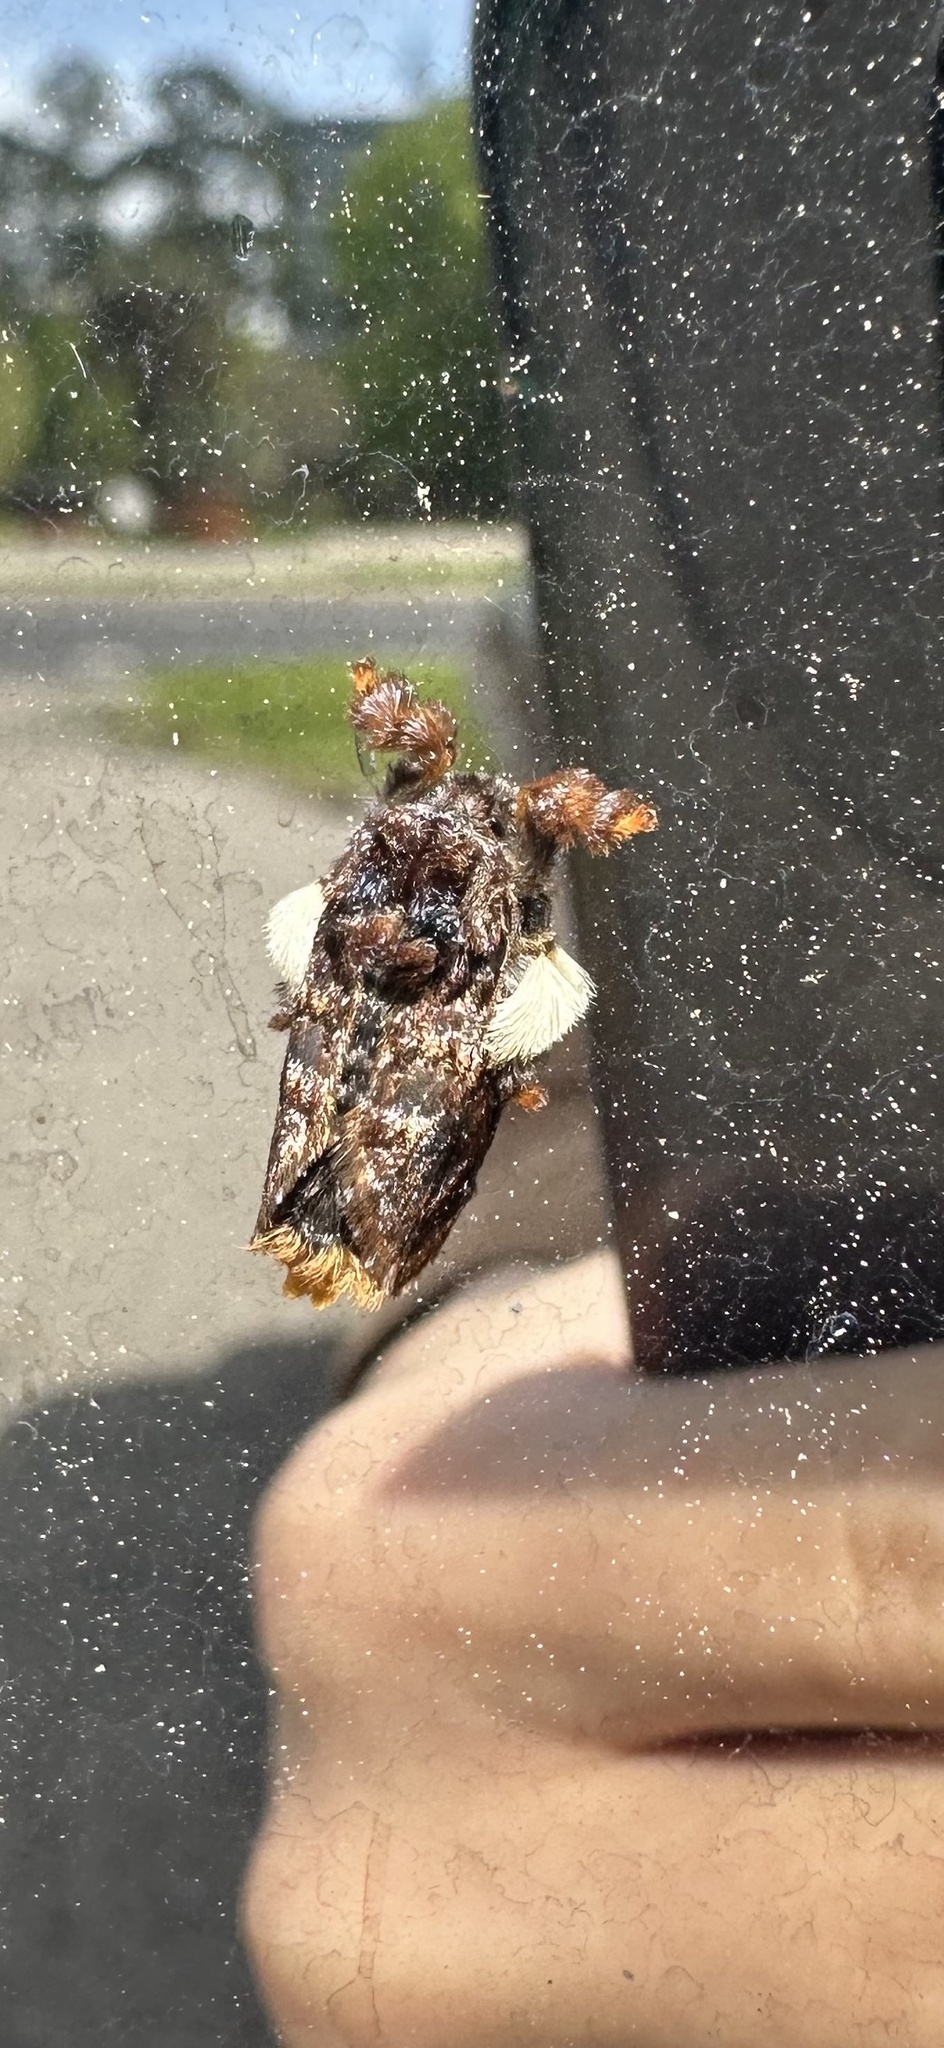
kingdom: Animalia
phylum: Arthropoda
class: Insecta
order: Lepidoptera
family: Limacodidae
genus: Phobetron
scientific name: Phobetron pithecium
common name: Hag moth
